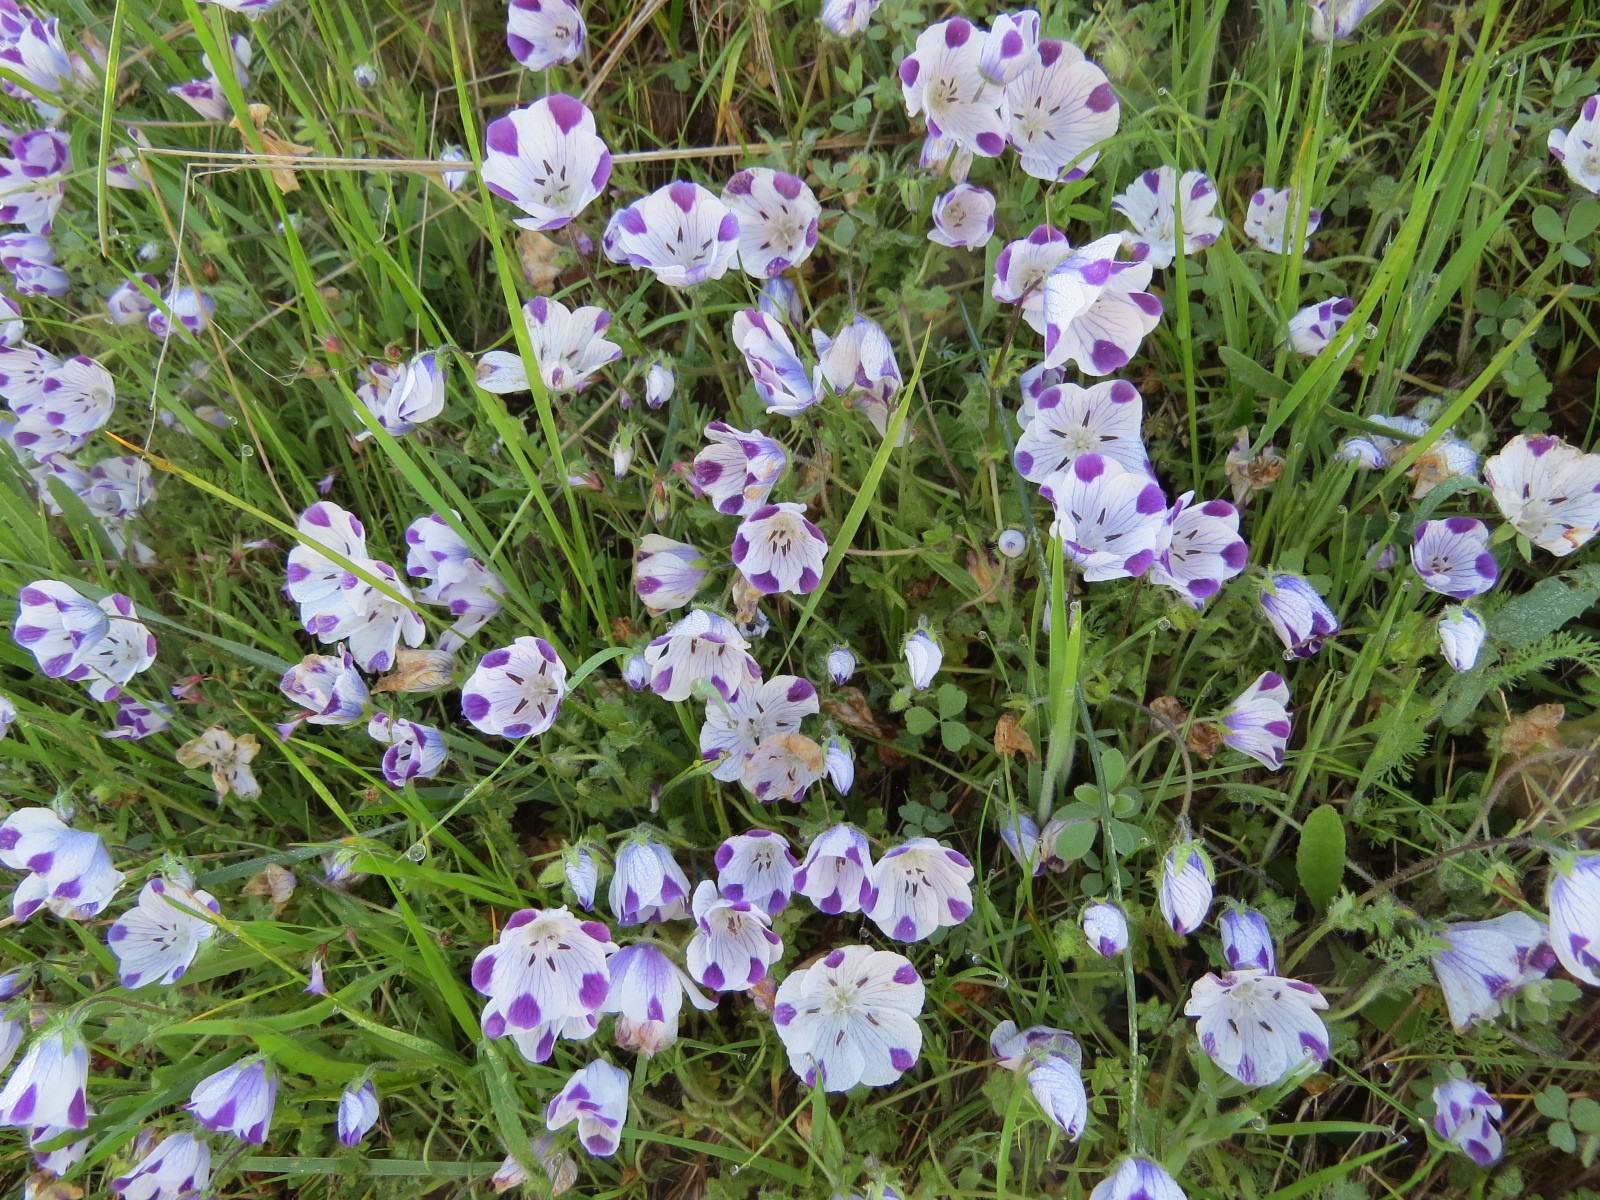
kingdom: Plantae
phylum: Tracheophyta
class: Magnoliopsida
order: Boraginales
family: Hydrophyllaceae
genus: Nemophila
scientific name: Nemophila maculata
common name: Fivespot
